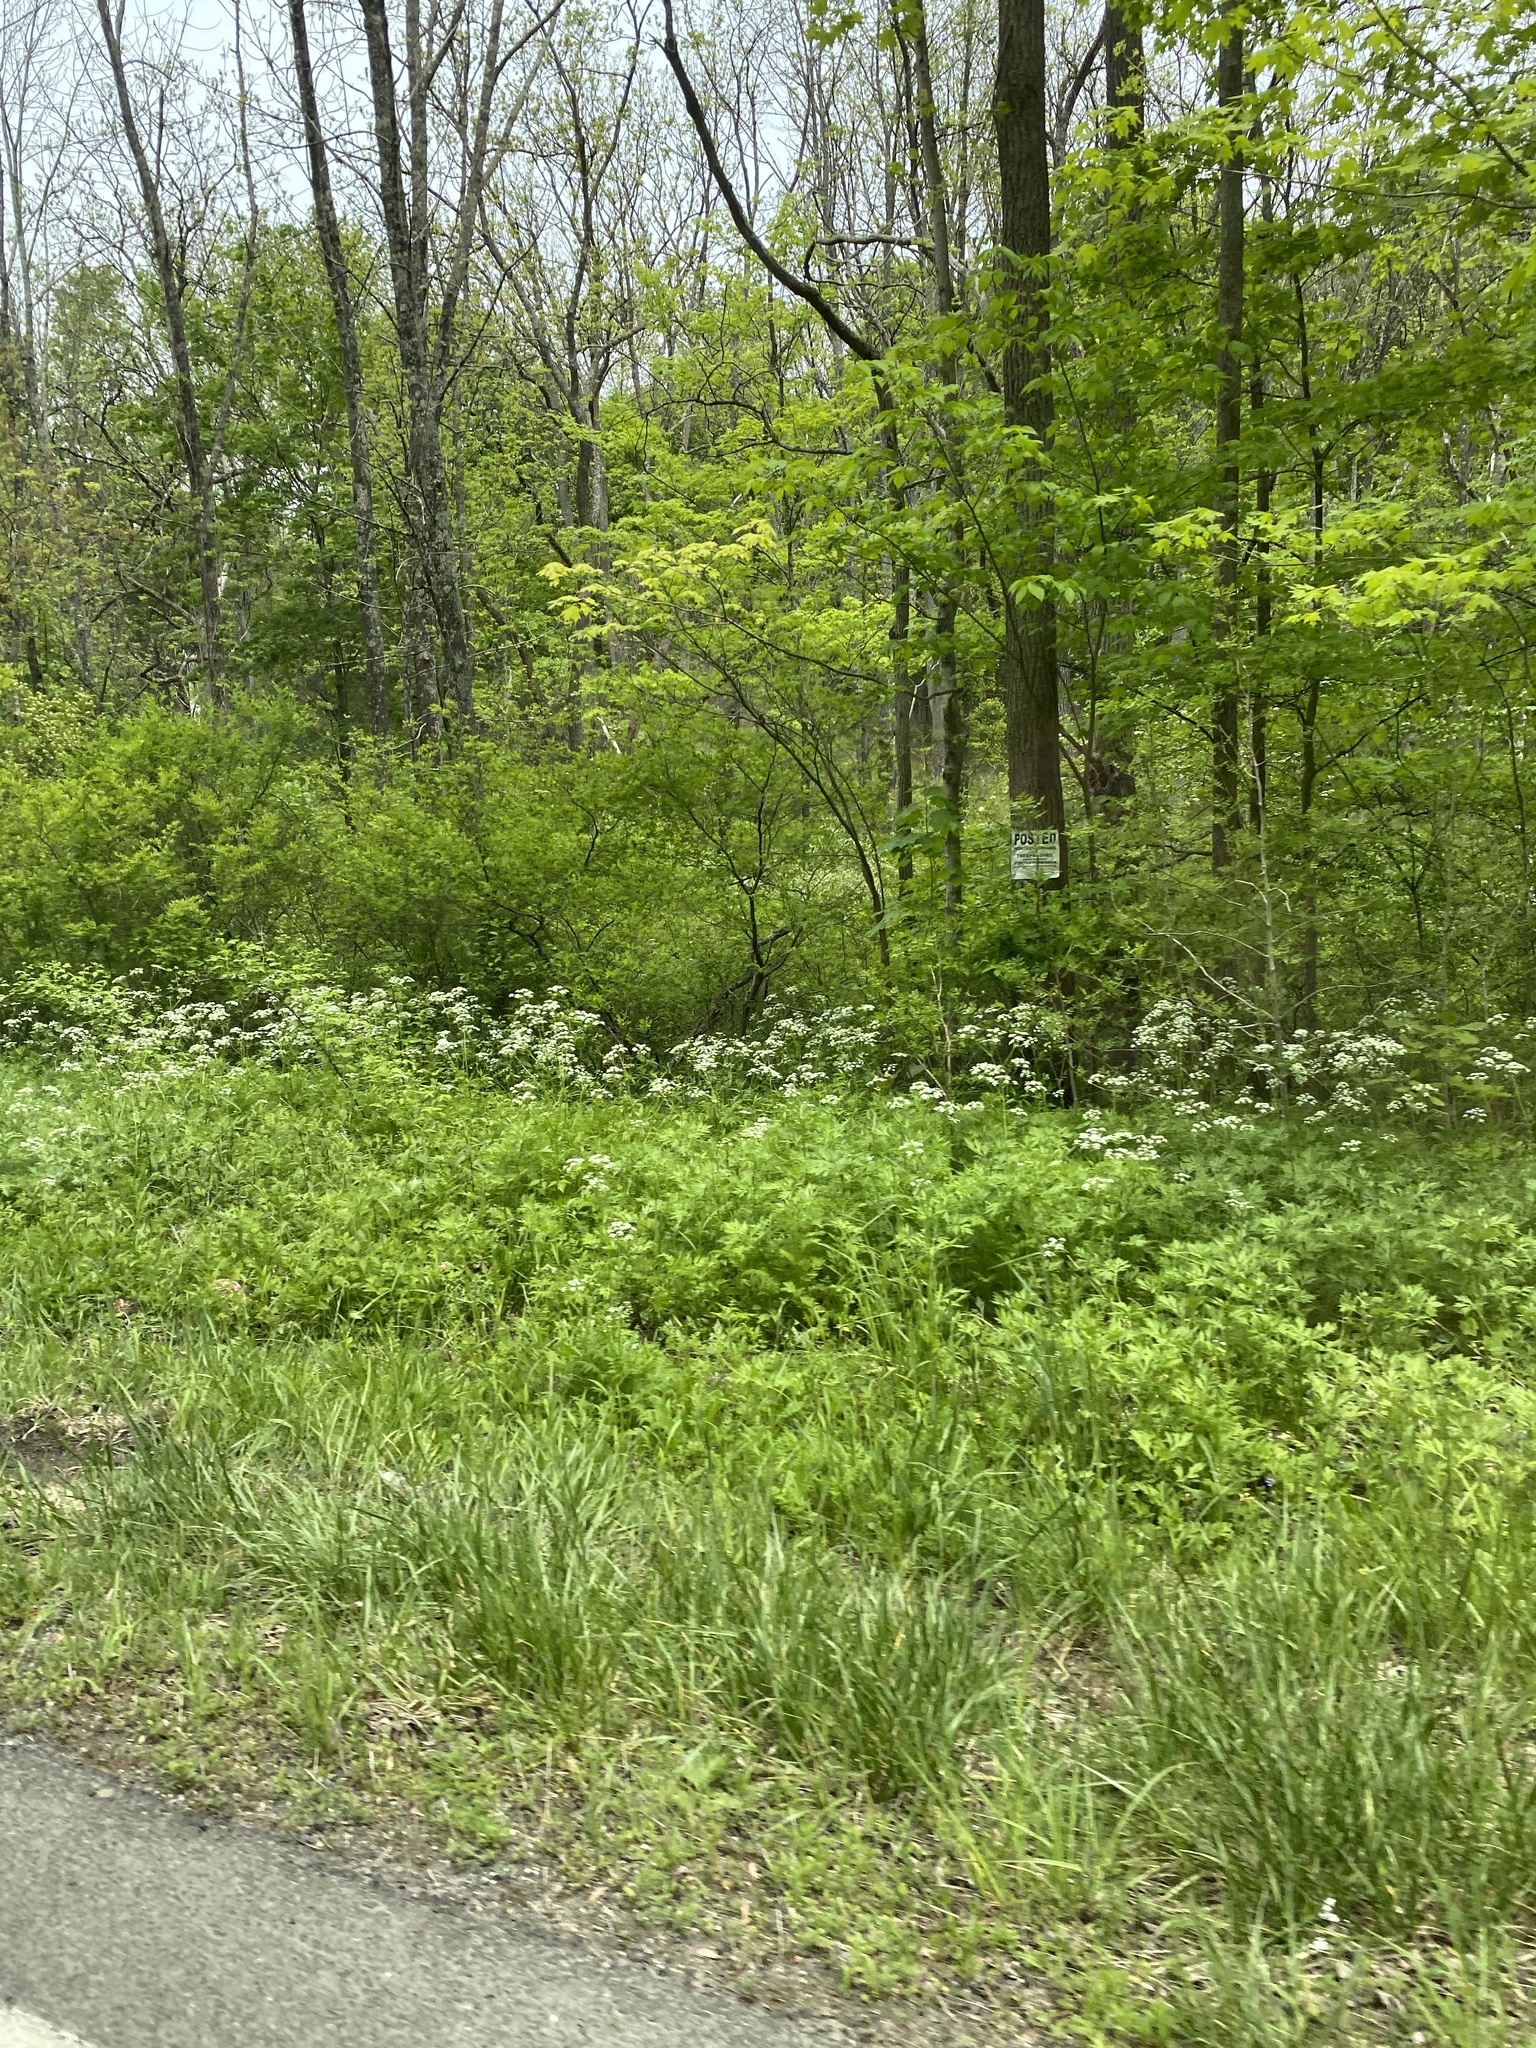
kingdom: Plantae
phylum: Tracheophyta
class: Magnoliopsida
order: Apiales
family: Apiaceae
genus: Anthriscus
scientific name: Anthriscus sylvestris
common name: Cow parsley
